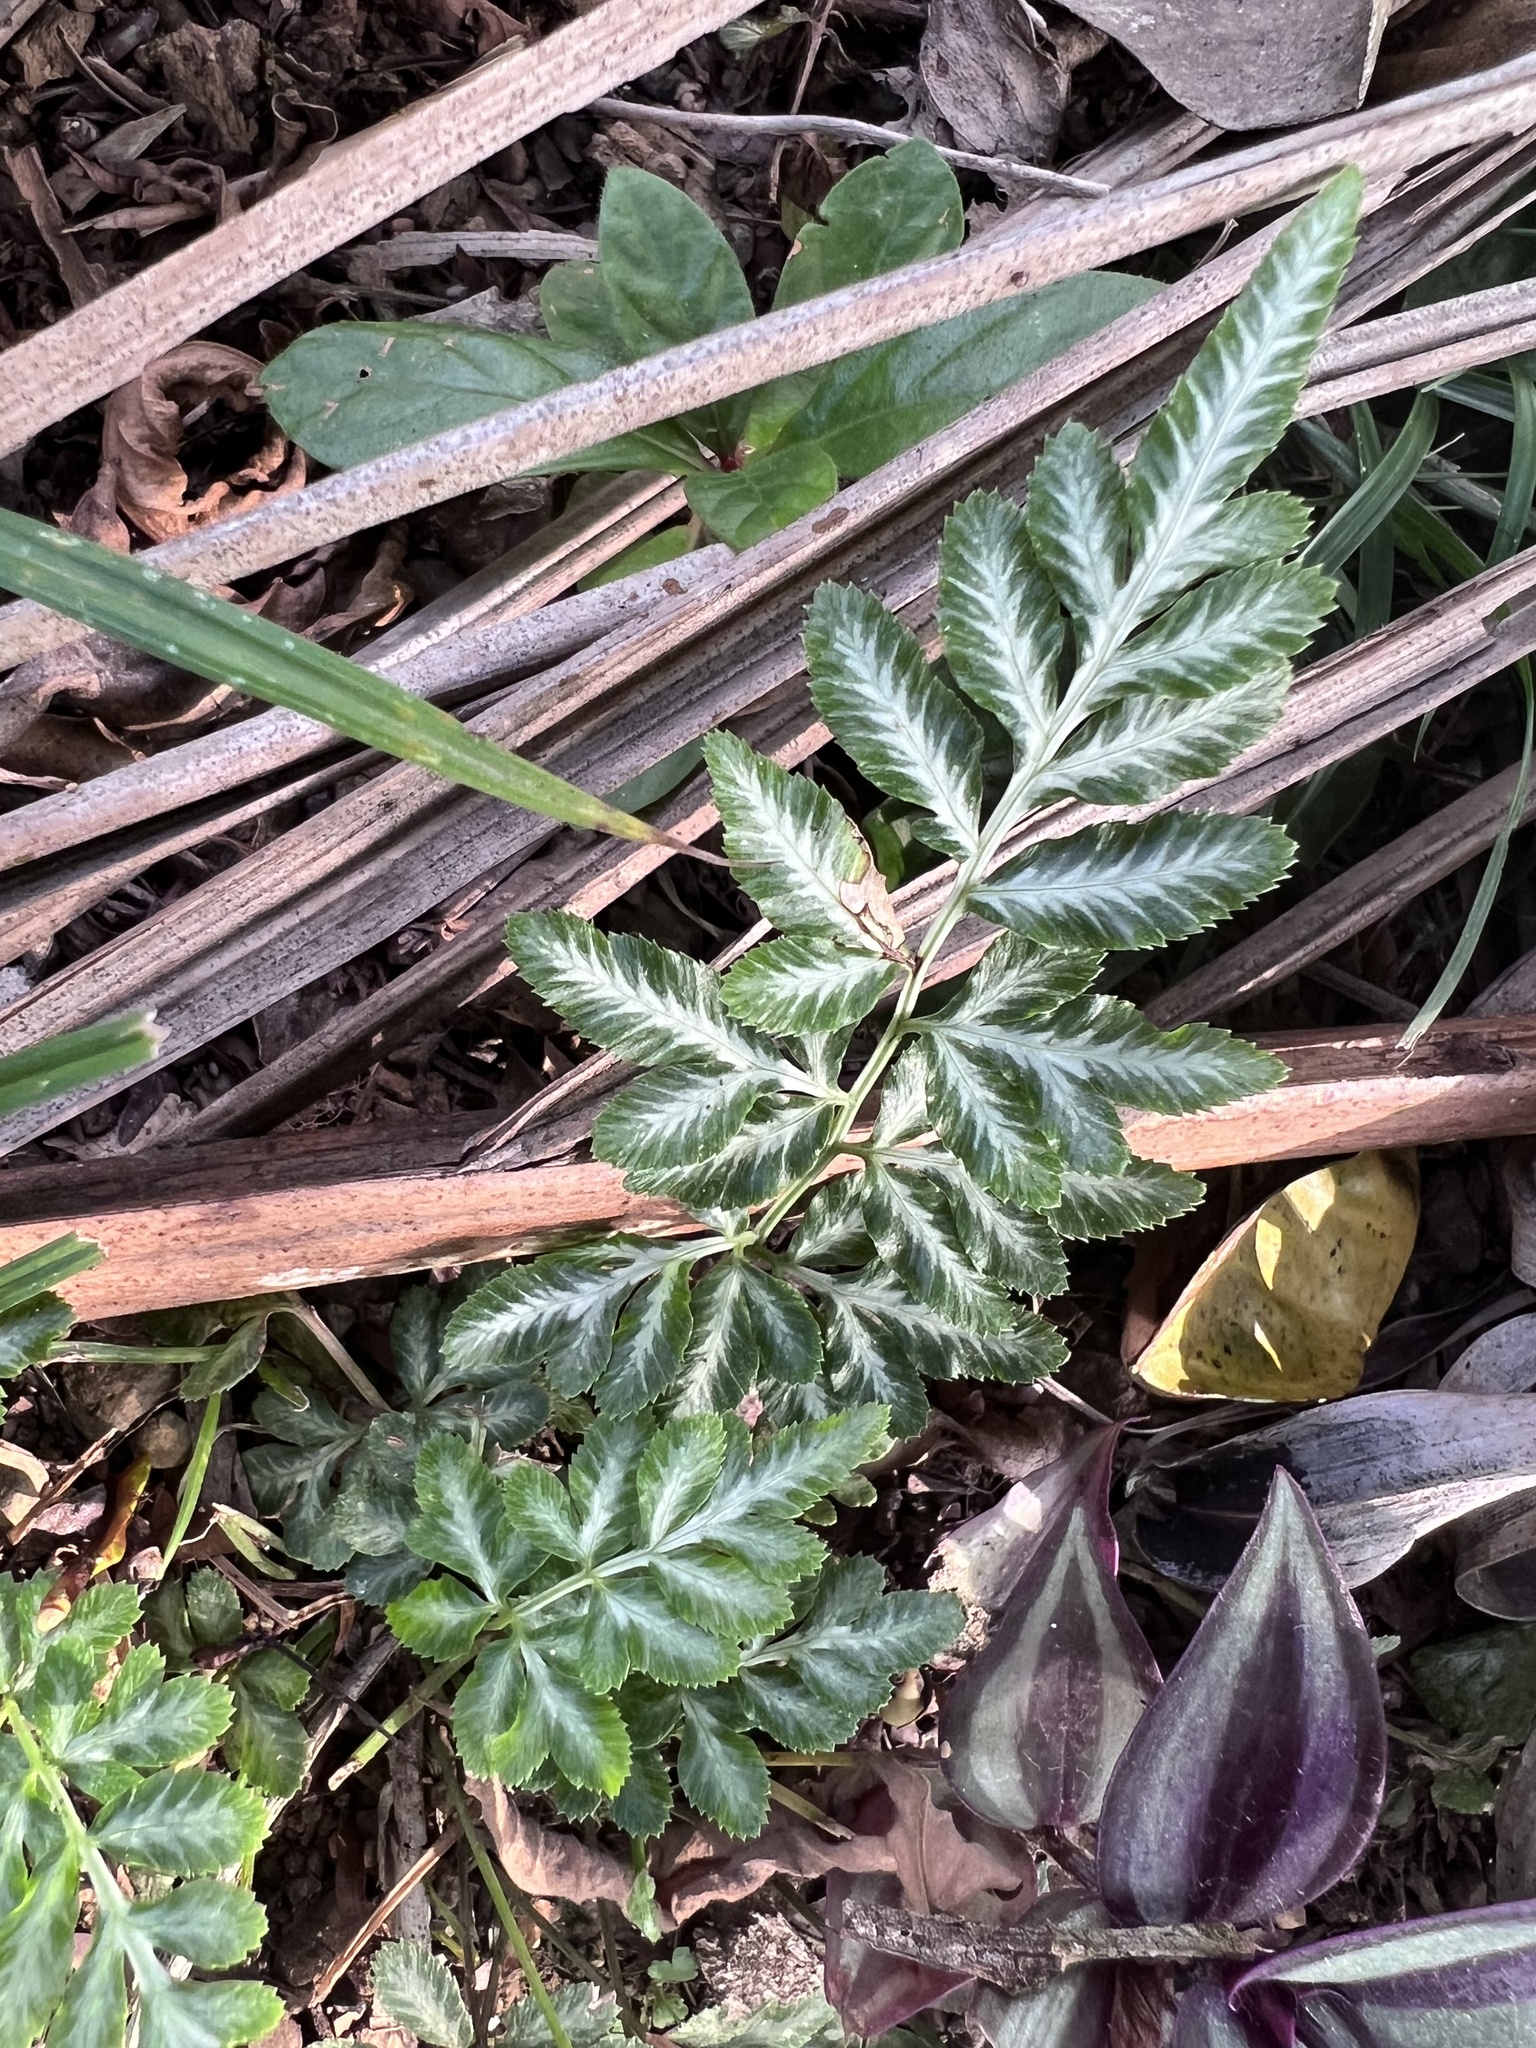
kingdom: Plantae
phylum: Tracheophyta
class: Polypodiopsida
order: Polypodiales
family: Pteridaceae
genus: Pteris
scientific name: Pteris ensiformis
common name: Sword brake
